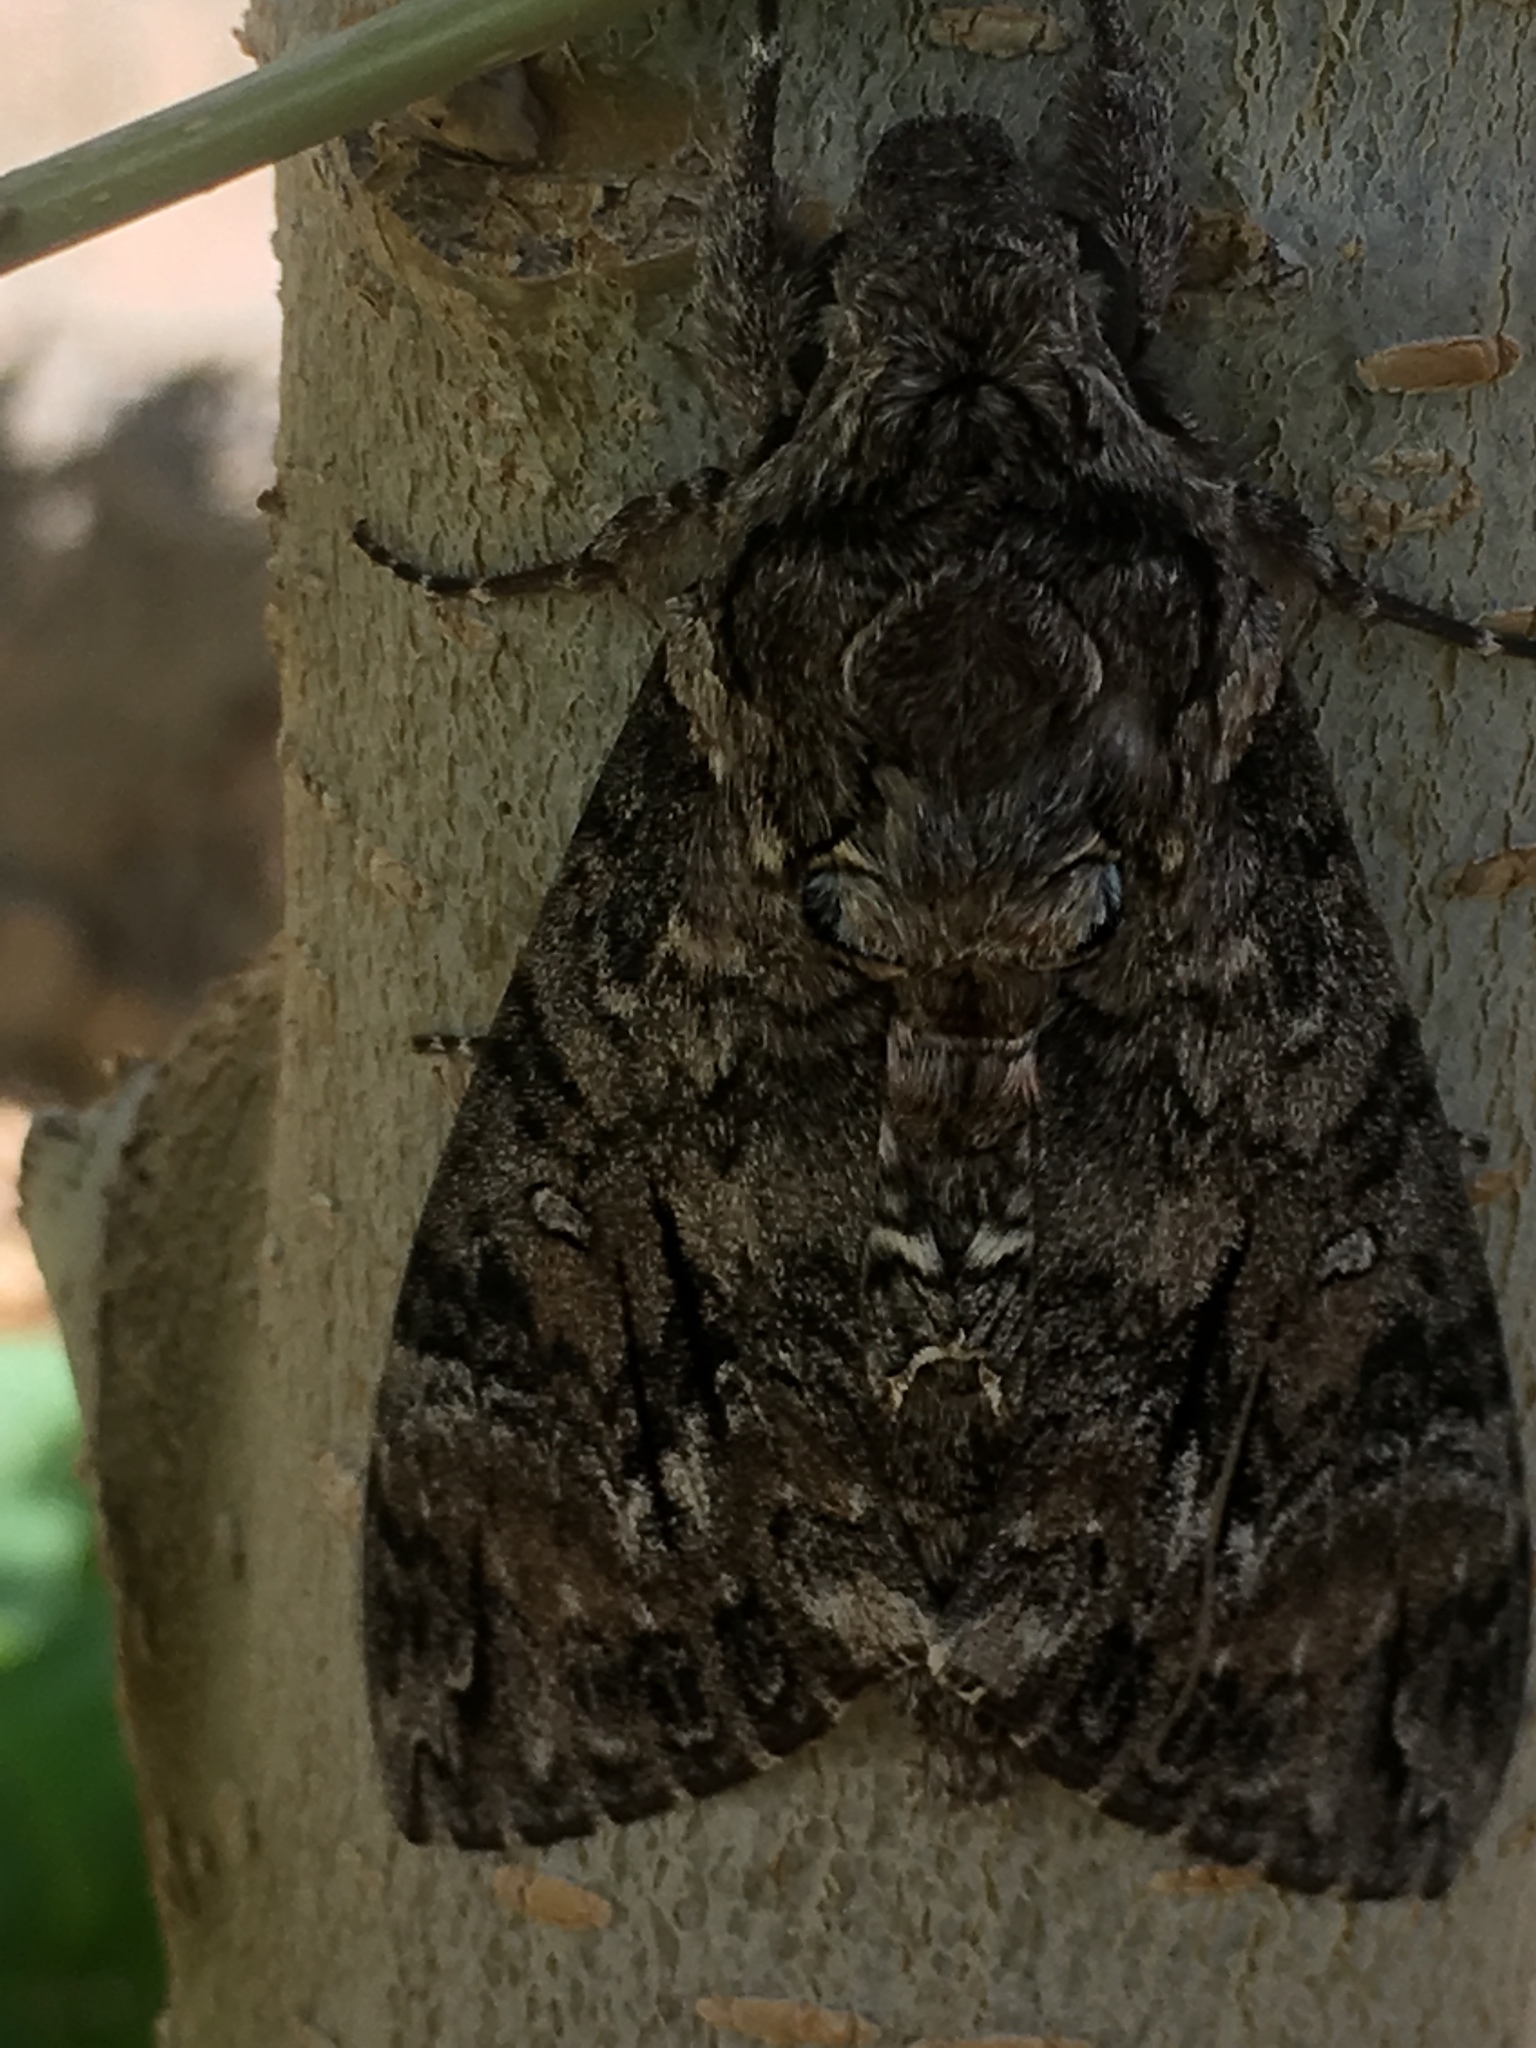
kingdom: Animalia
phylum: Arthropoda
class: Insecta
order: Lepidoptera
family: Sphingidae
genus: Agrius
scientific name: Agrius cingulata
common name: Pink-spotted hawkmoth
